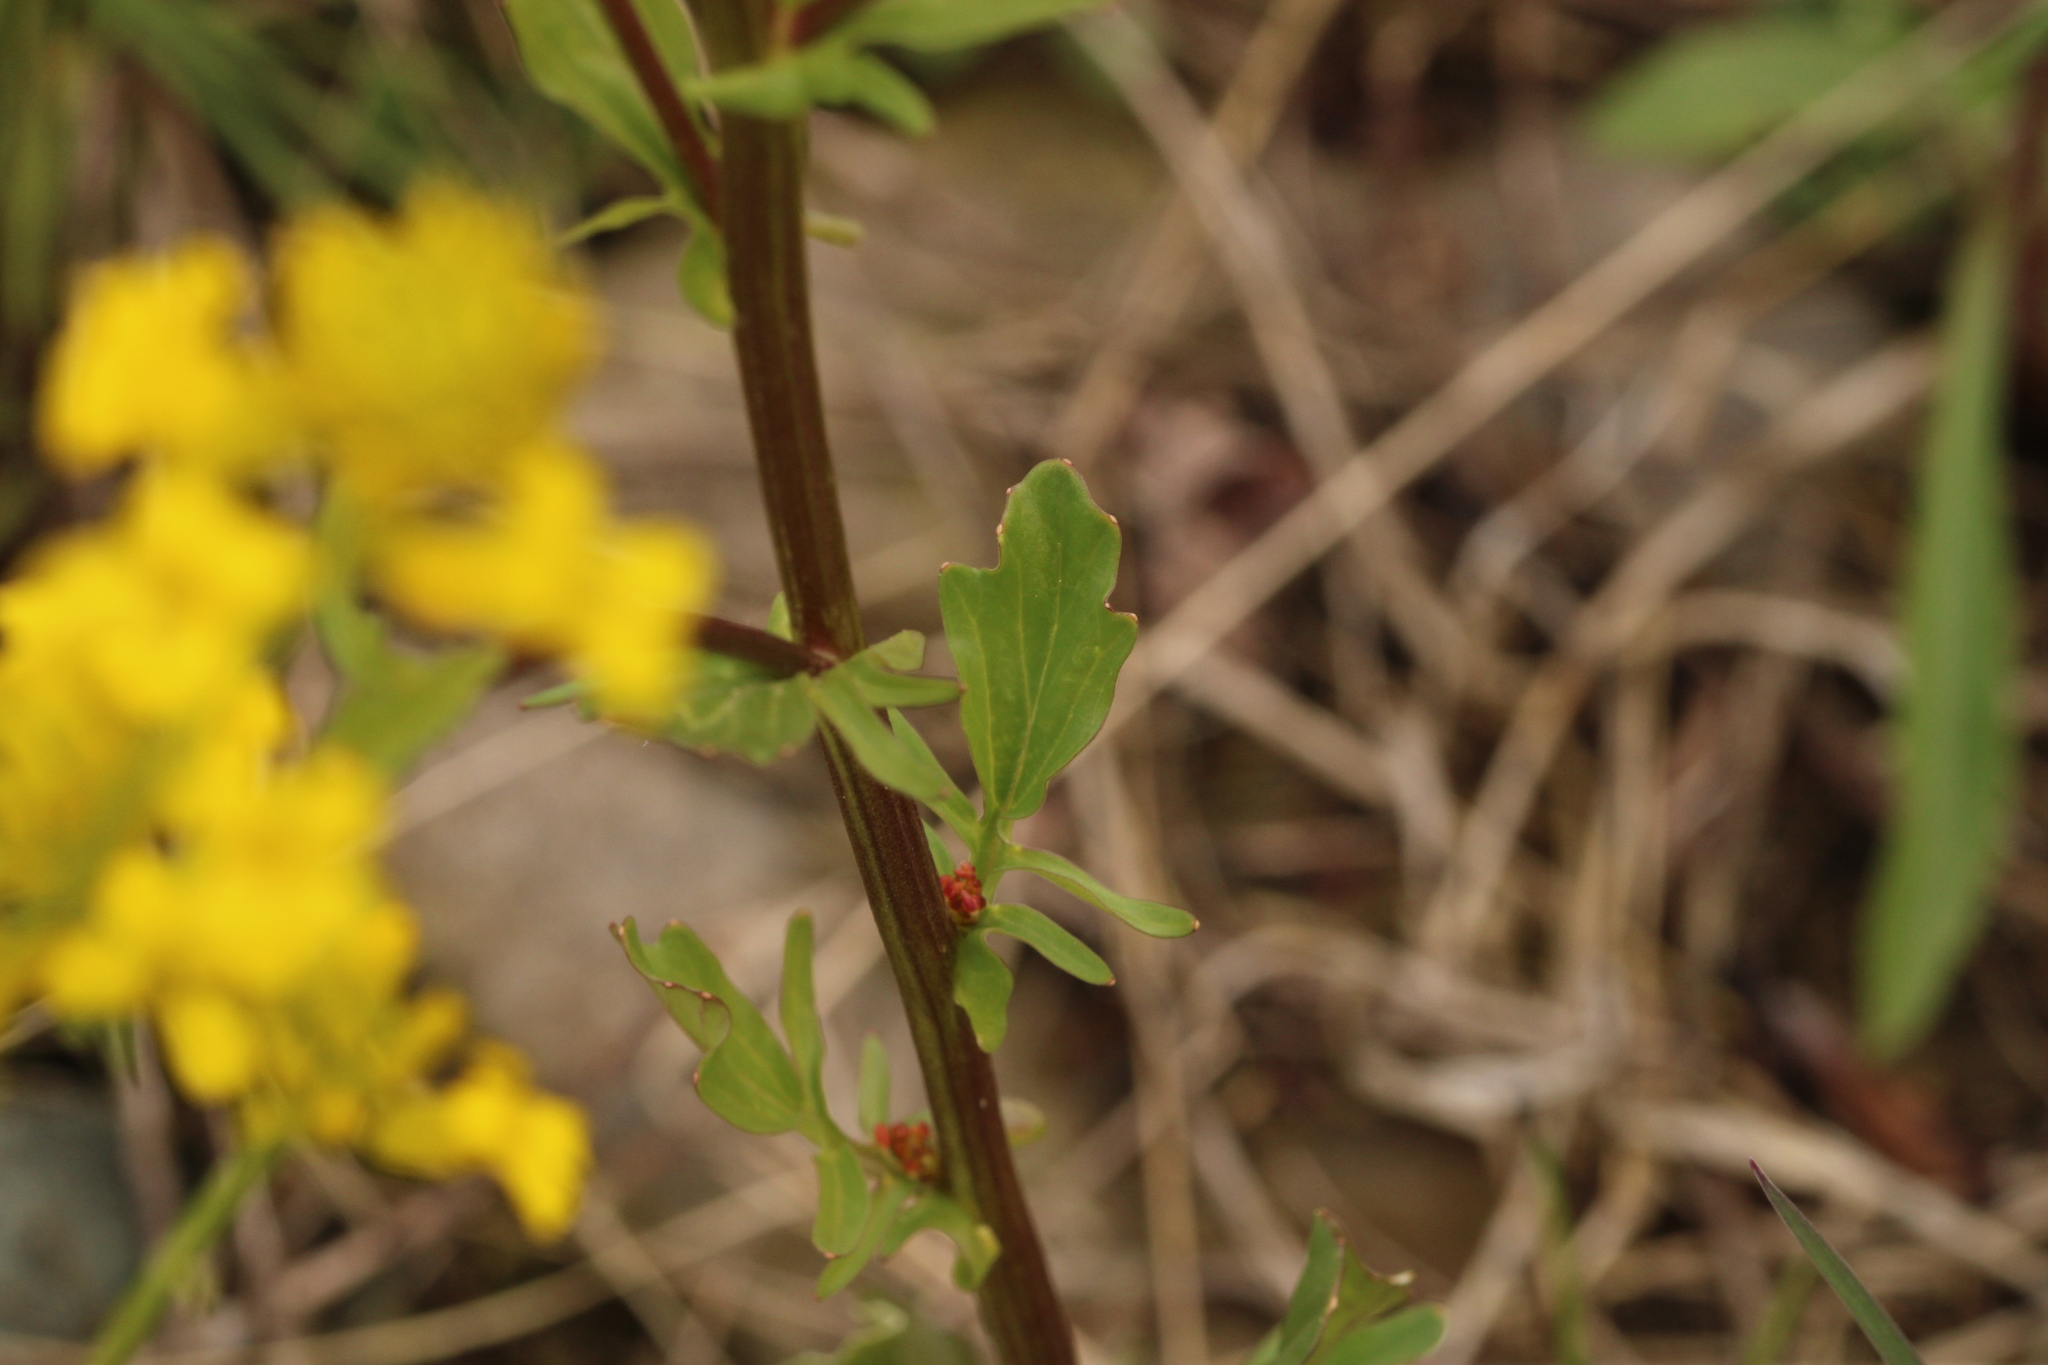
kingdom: Plantae
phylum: Tracheophyta
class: Magnoliopsida
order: Brassicales
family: Brassicaceae
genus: Barbarea
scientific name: Barbarea vulgaris
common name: Cressy-greens
